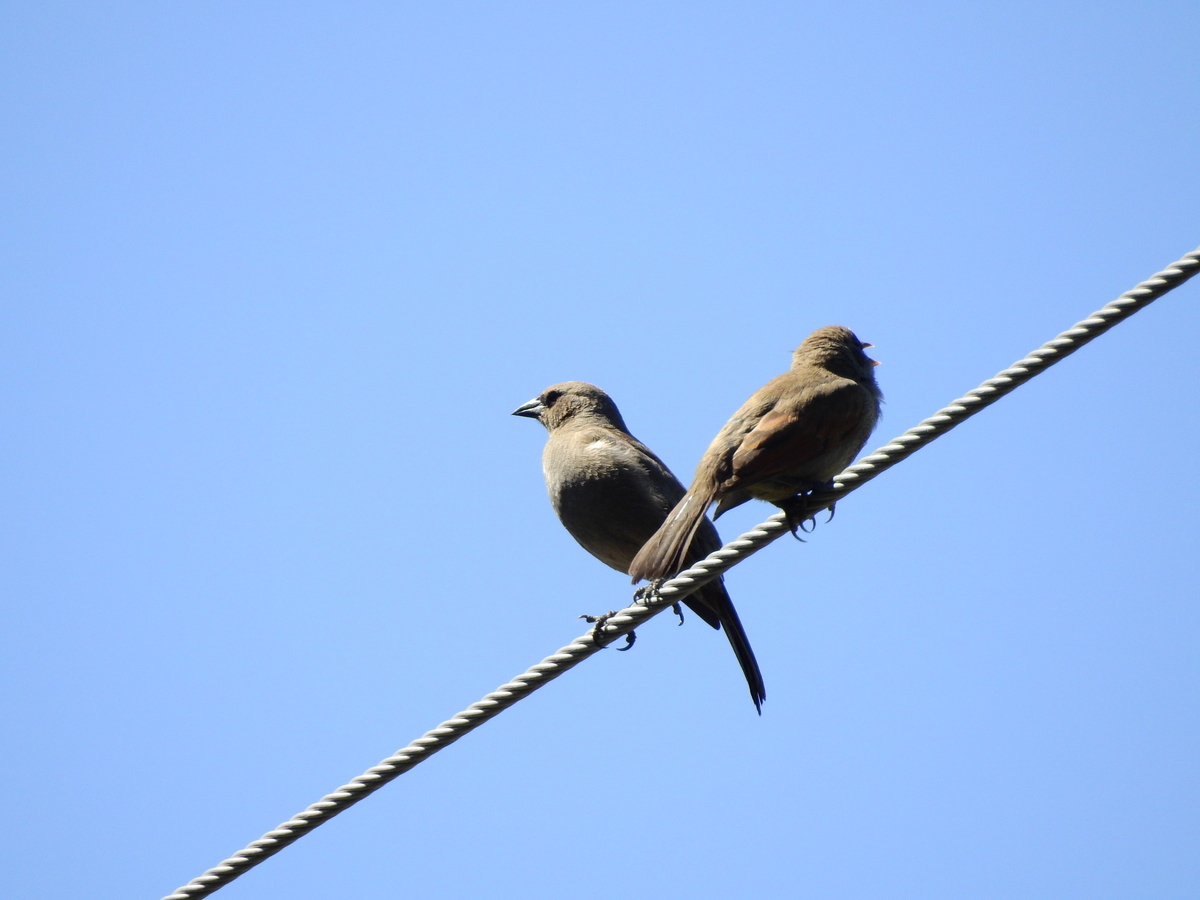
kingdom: Animalia
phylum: Chordata
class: Aves
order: Passeriformes
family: Icteridae
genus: Agelaioides
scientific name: Agelaioides badius
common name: Baywing
